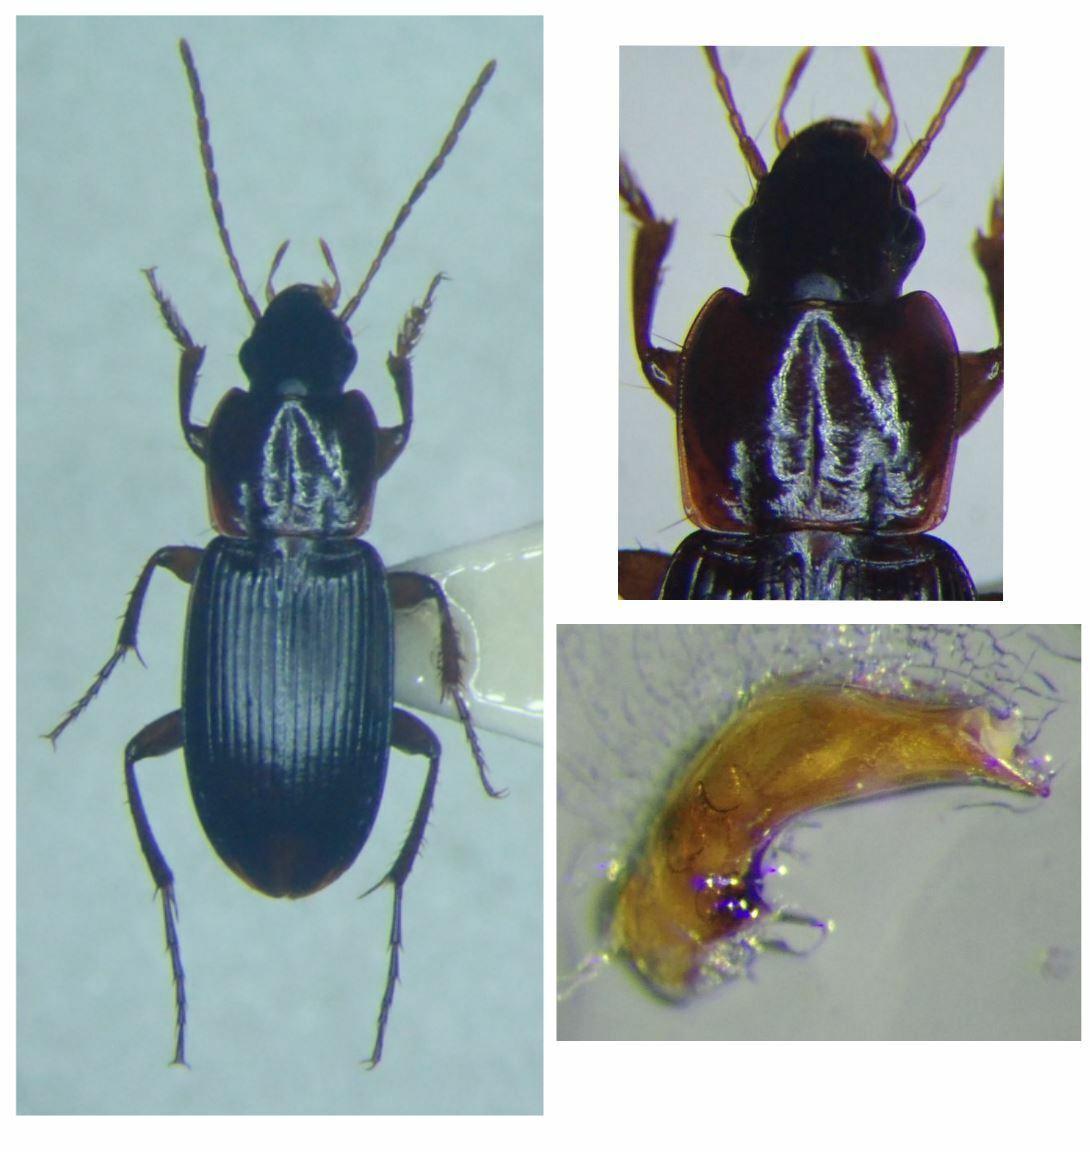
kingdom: Animalia
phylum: Arthropoda
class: Insecta
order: Coleoptera
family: Carabidae
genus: Platyderus
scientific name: Platyderus depressus
